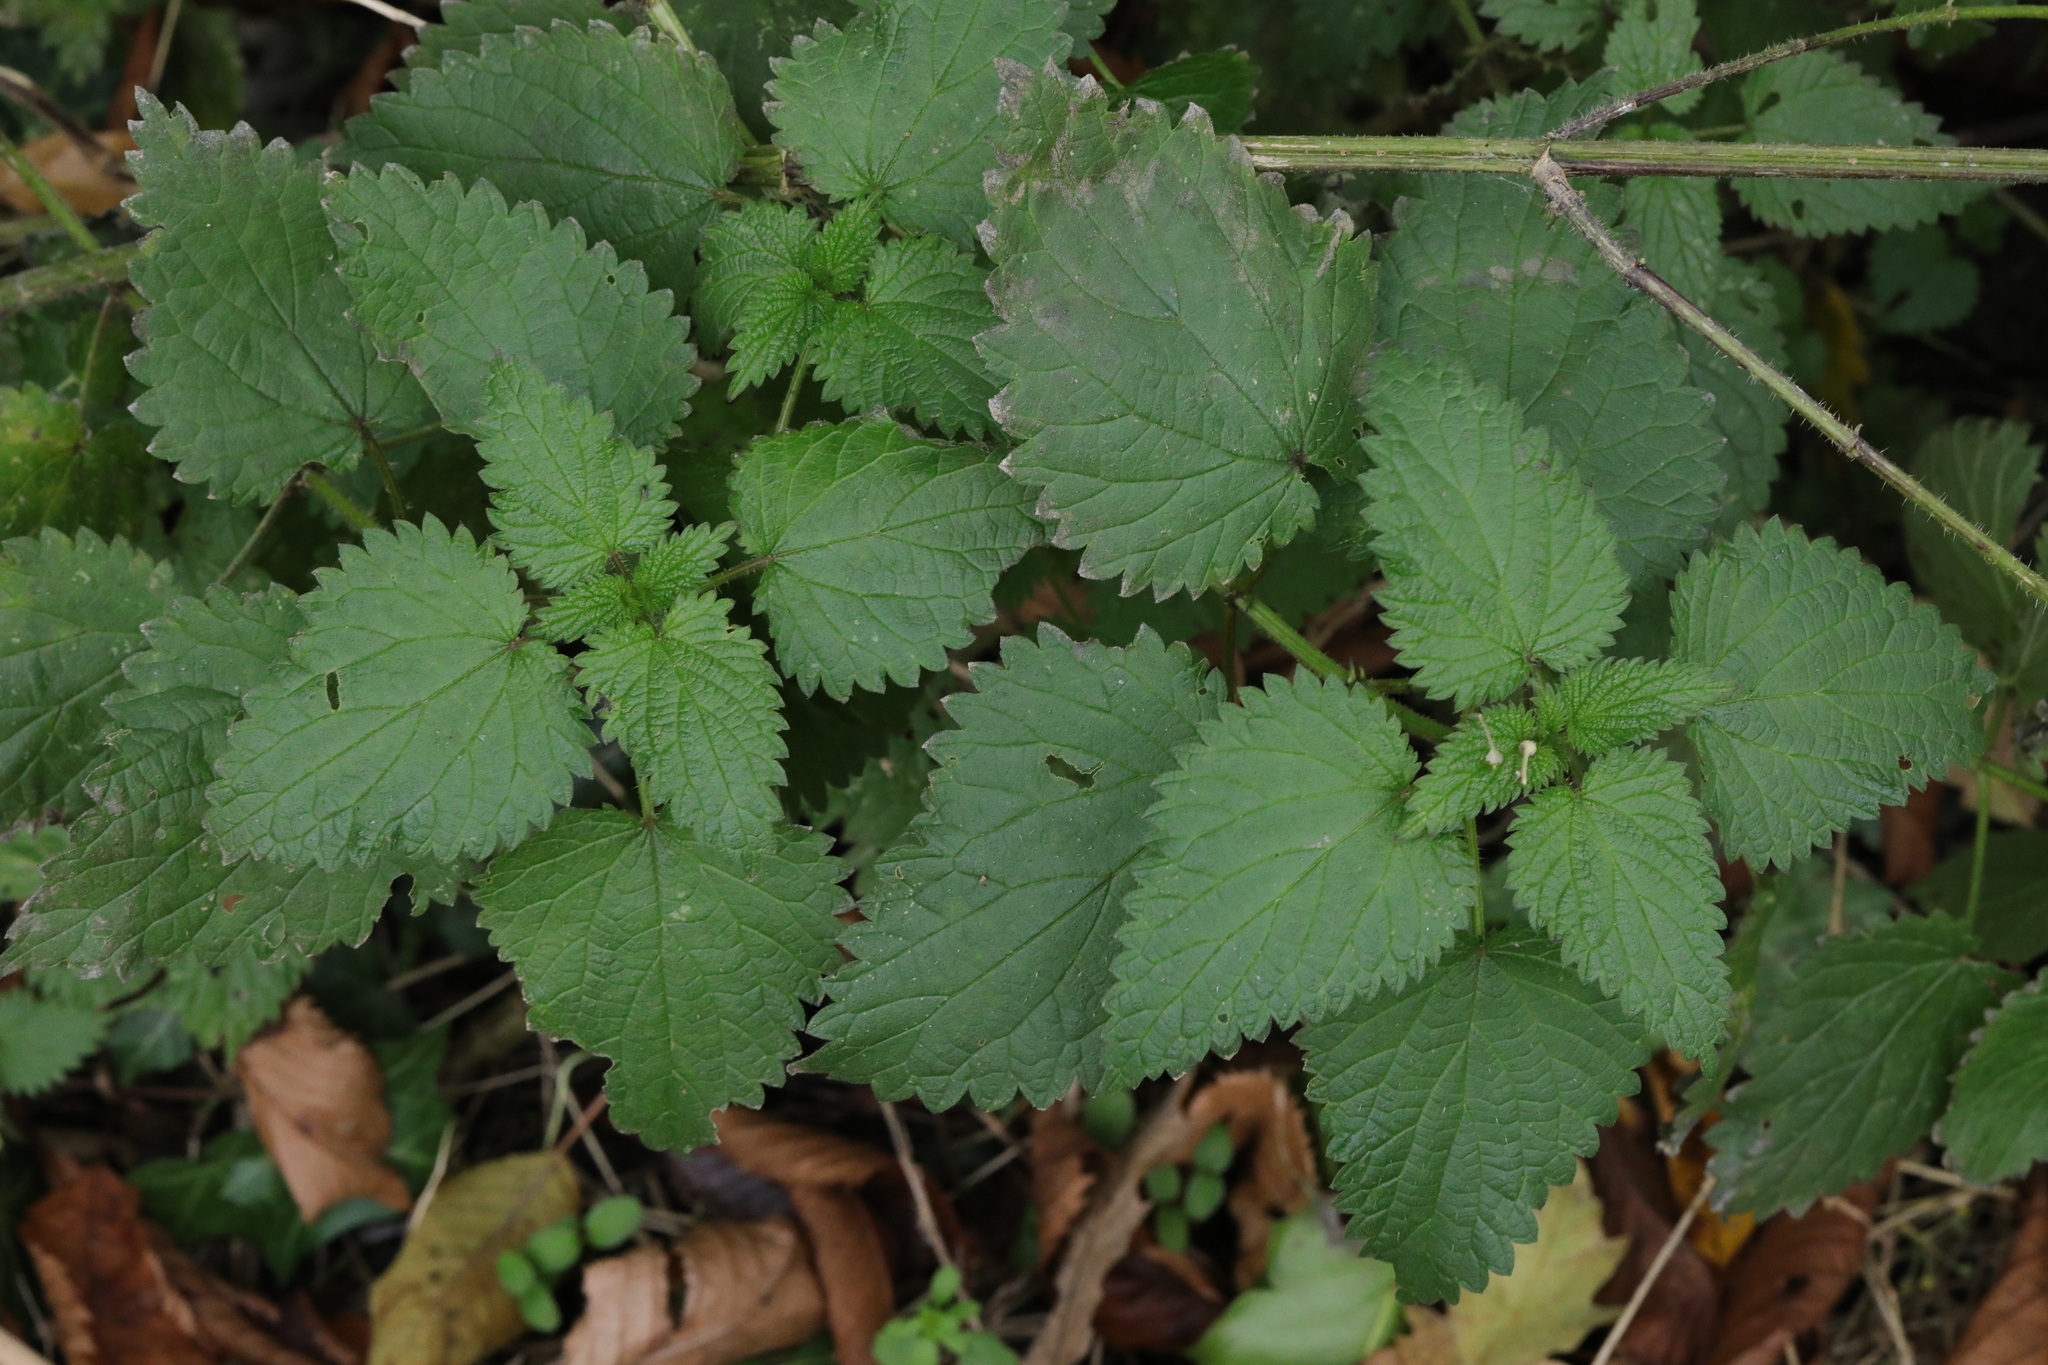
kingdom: Plantae
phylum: Tracheophyta
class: Magnoliopsida
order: Rosales
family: Urticaceae
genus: Urtica
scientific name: Urtica dioica
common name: Common nettle
